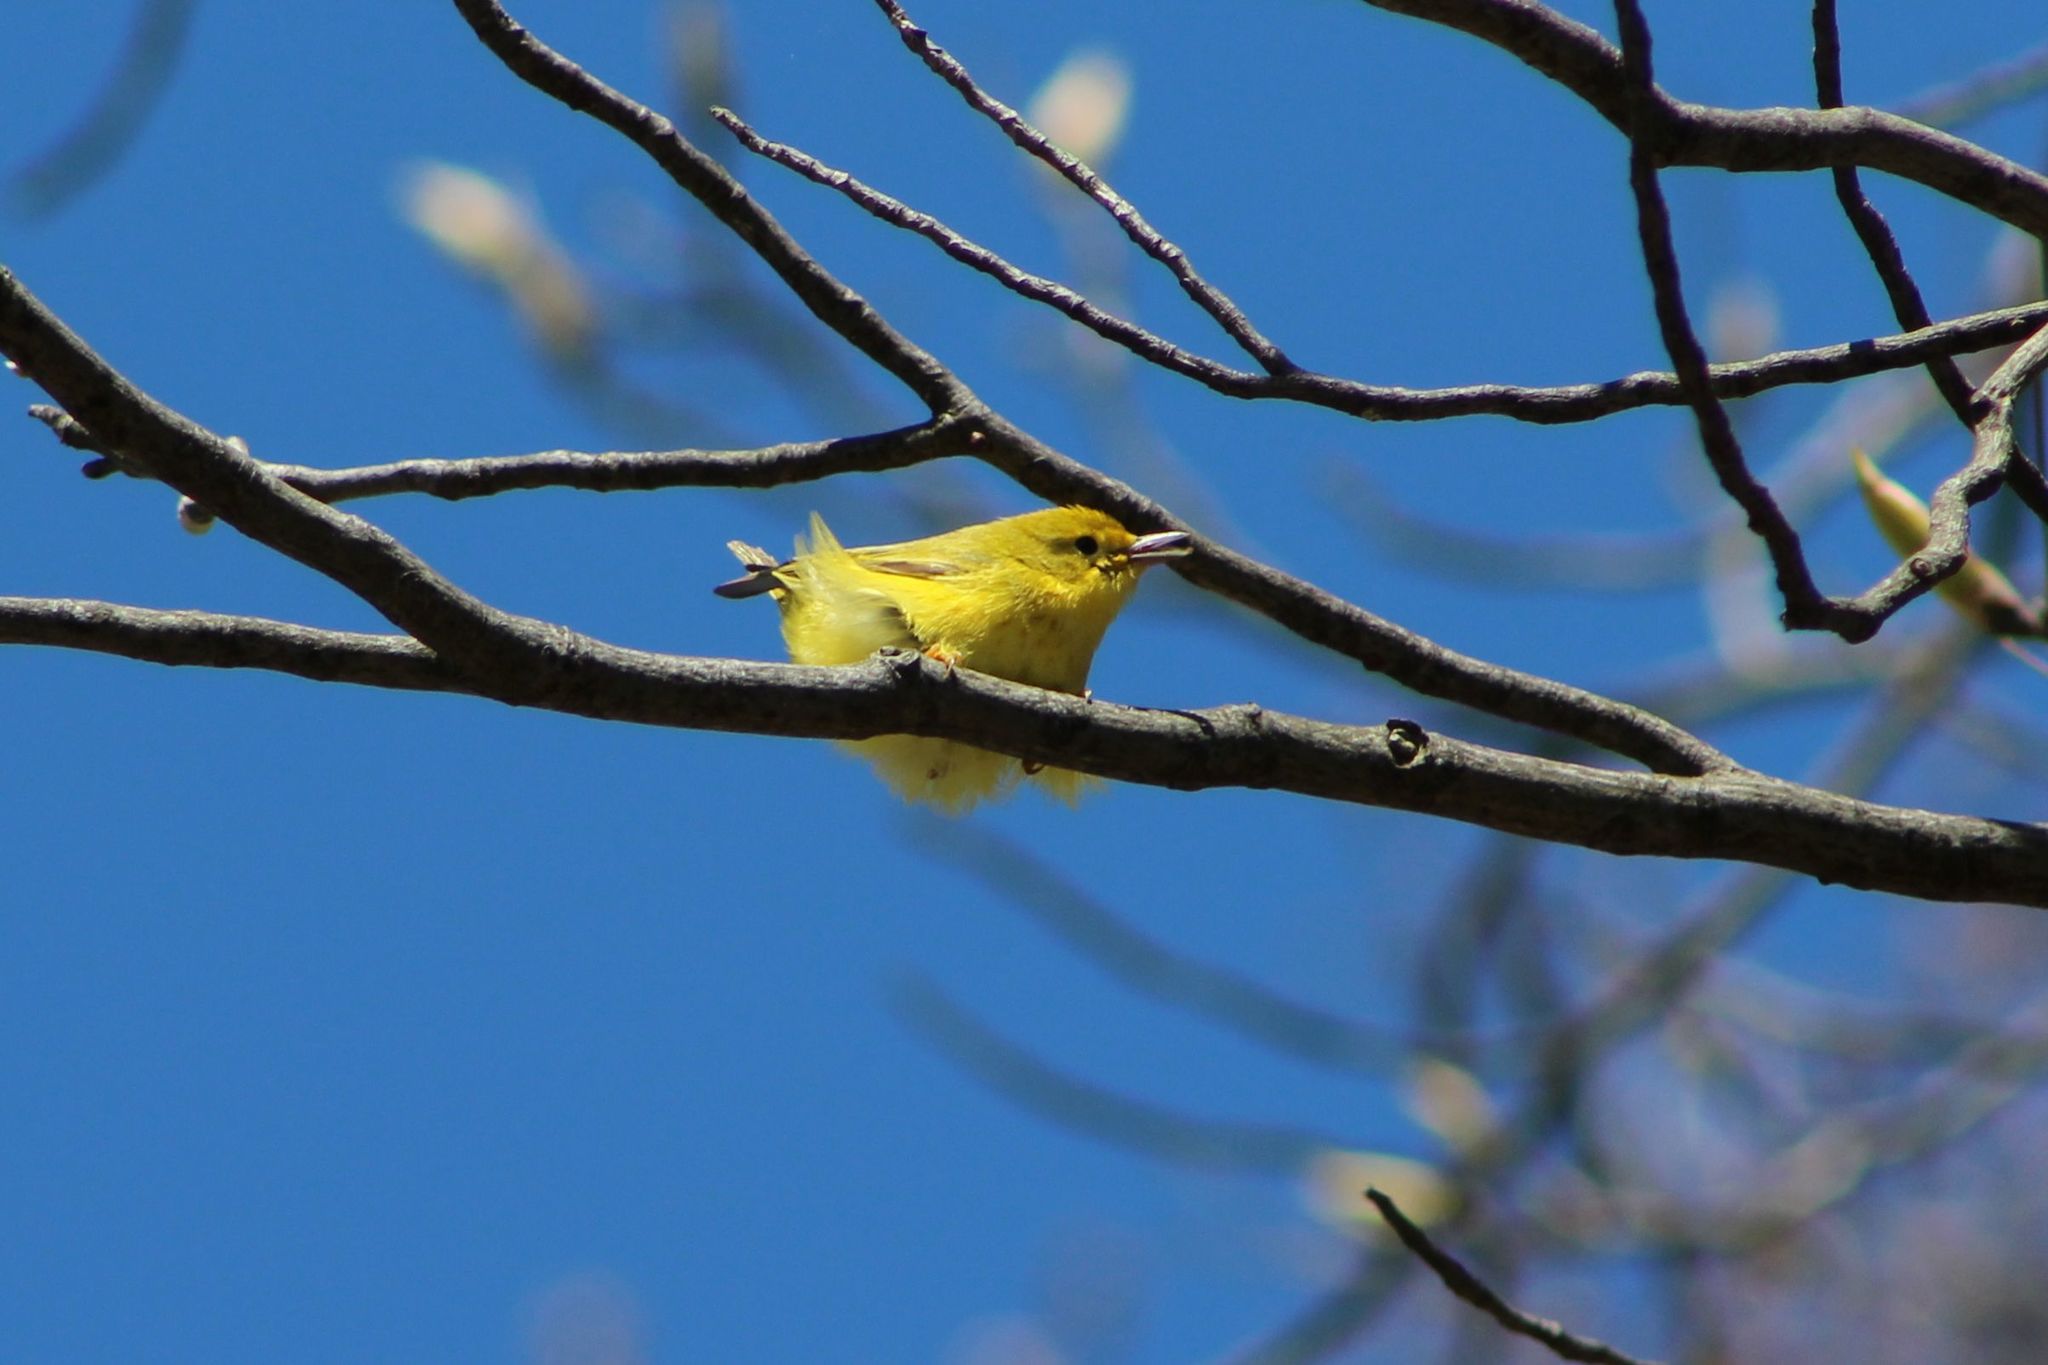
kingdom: Animalia
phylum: Chordata
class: Aves
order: Passeriformes
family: Parulidae
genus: Setophaga
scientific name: Setophaga petechia
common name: Yellow warbler
